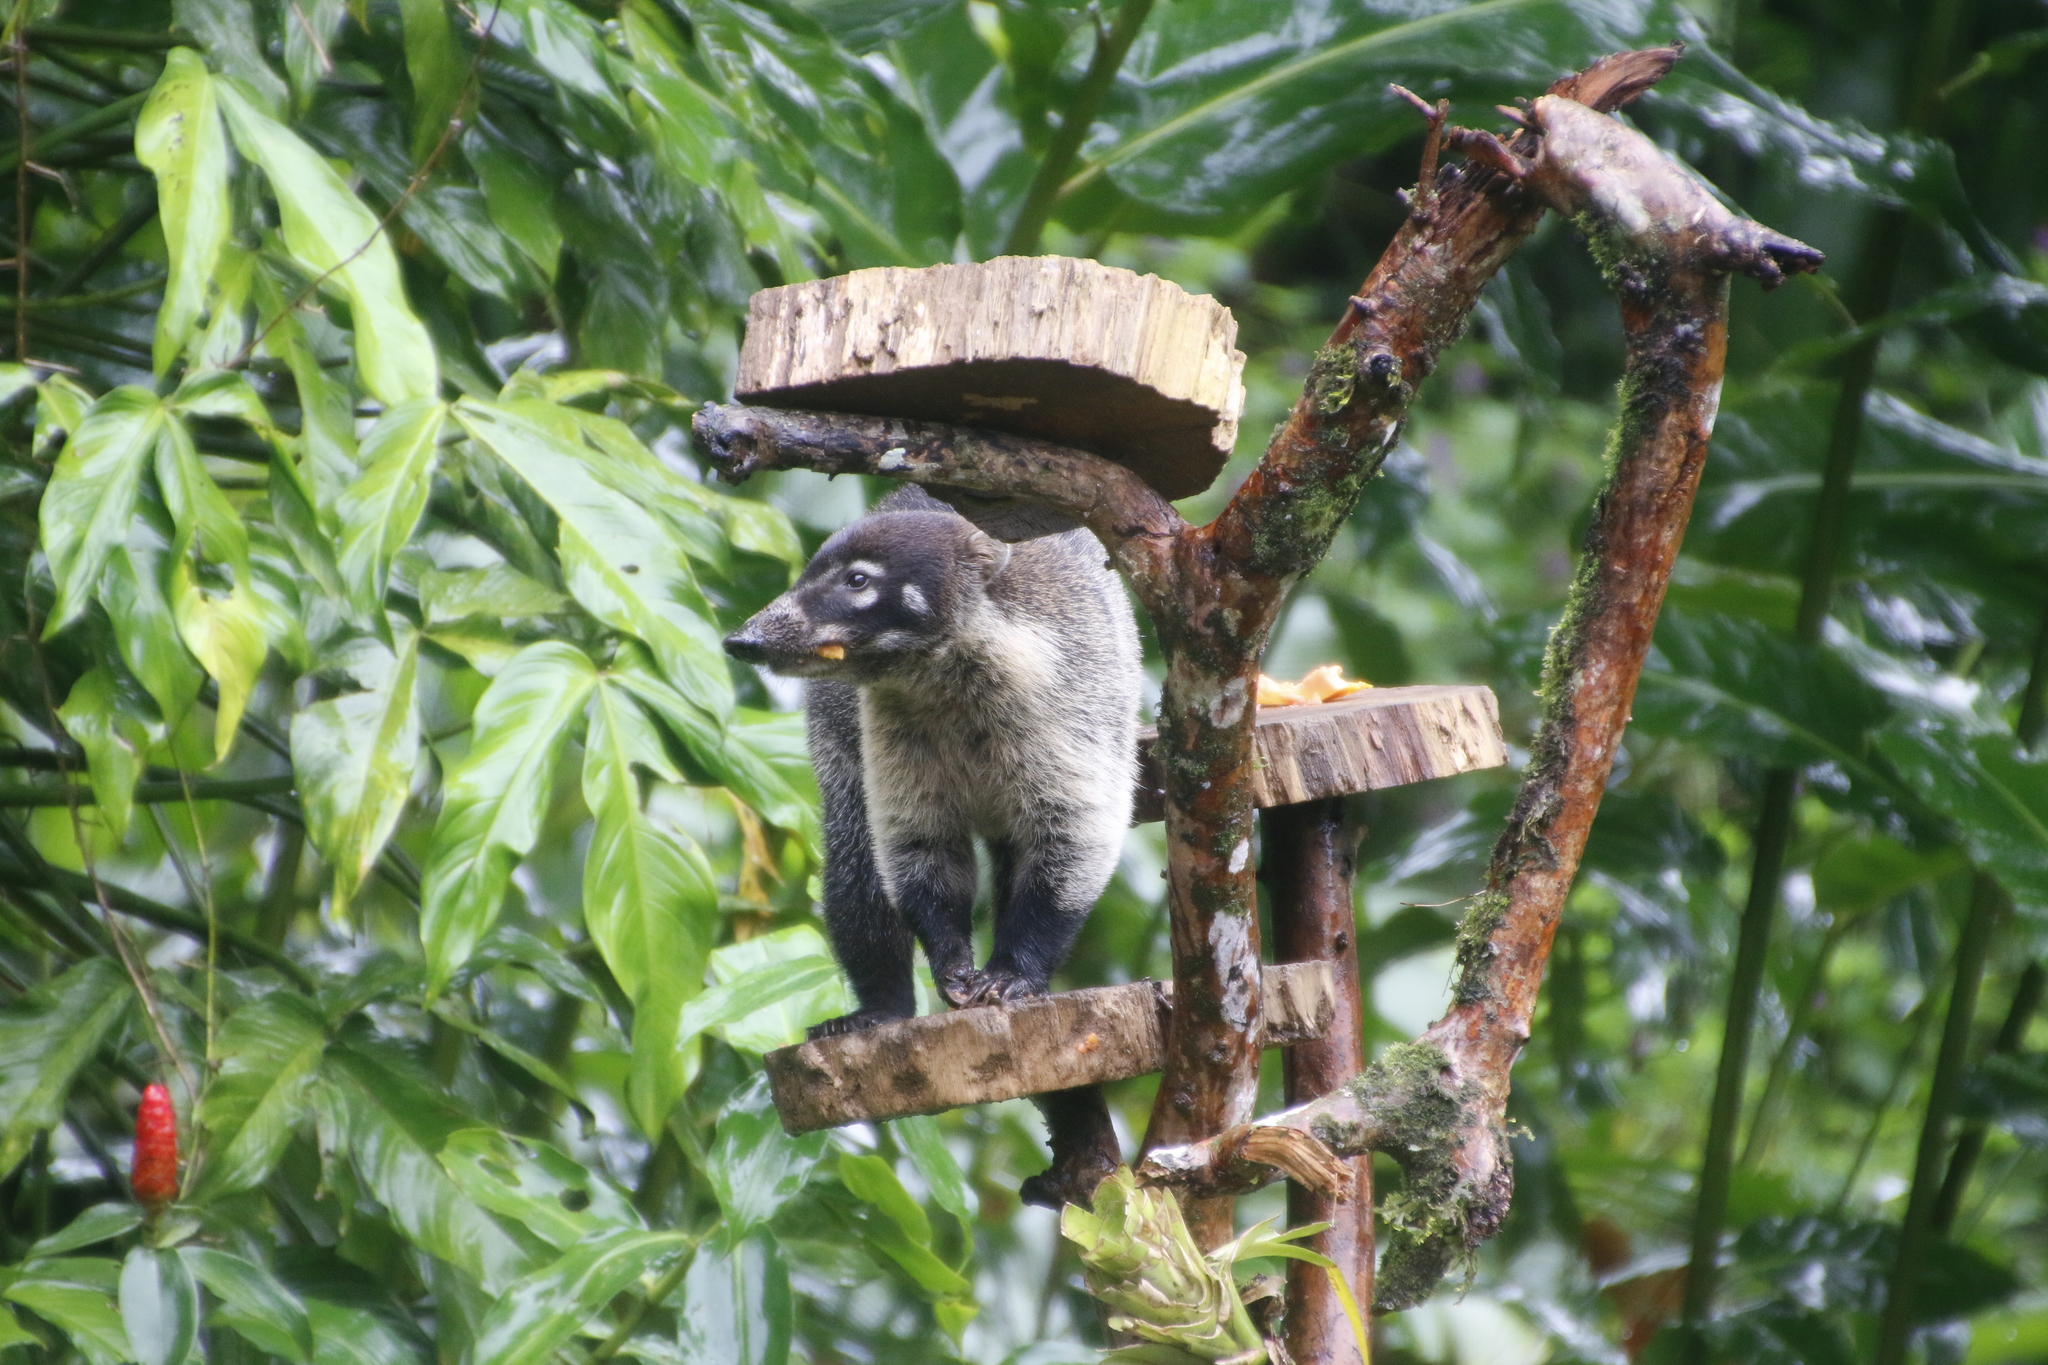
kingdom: Animalia
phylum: Chordata
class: Mammalia
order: Carnivora
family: Procyonidae
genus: Nasua
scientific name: Nasua narica
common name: White-nosed coati
